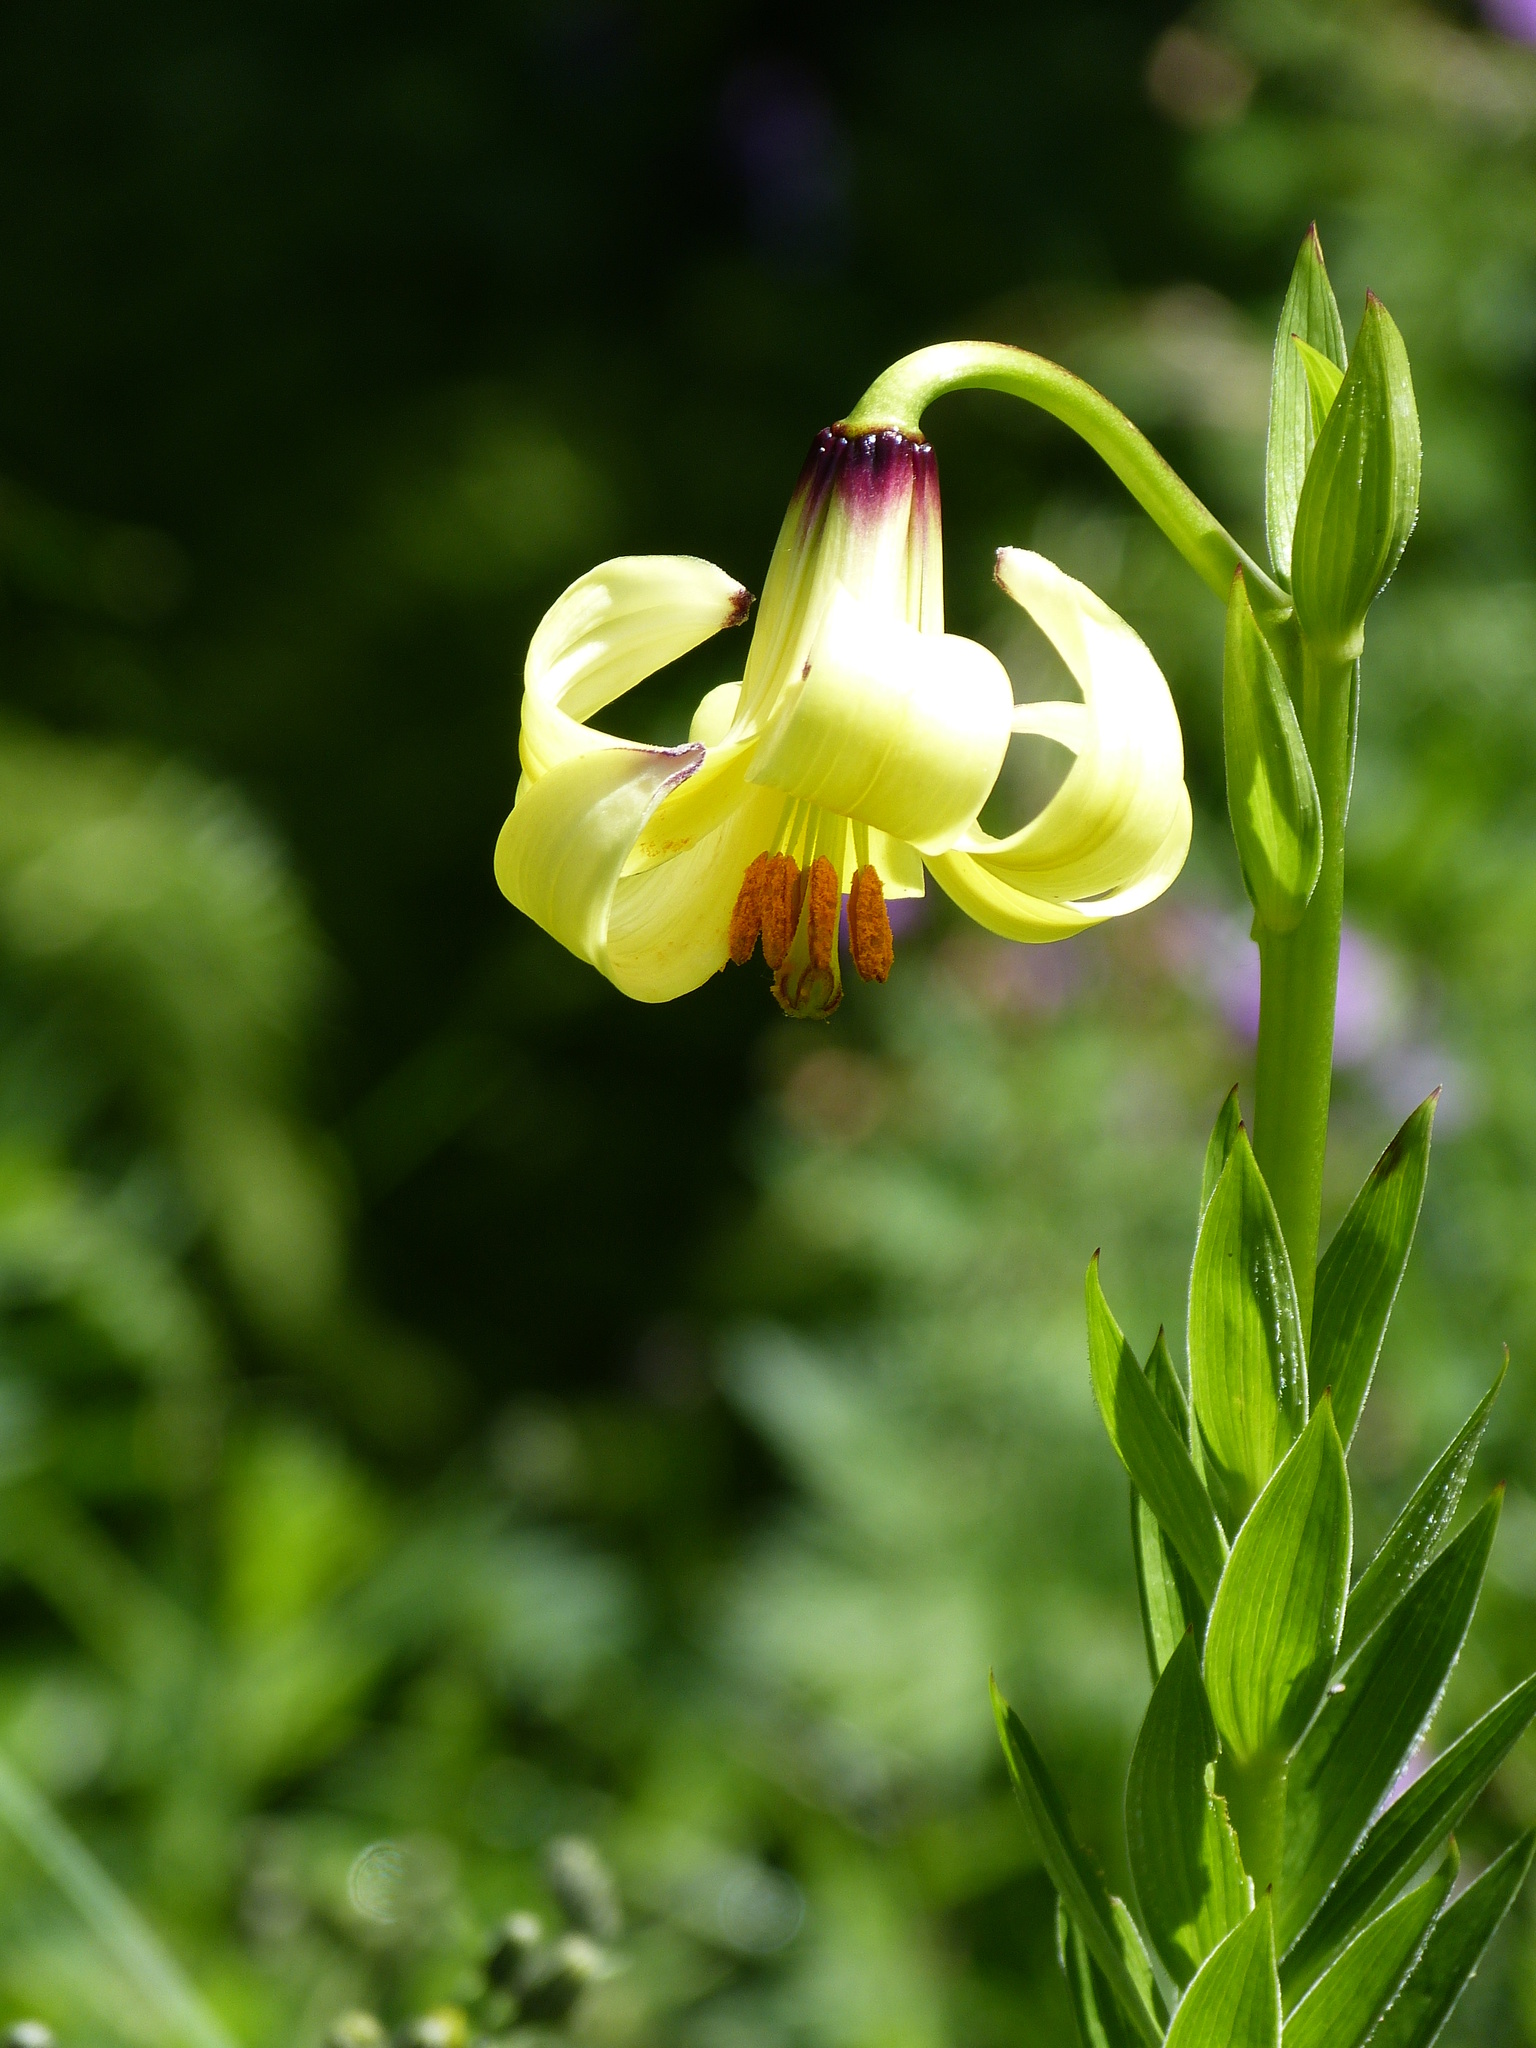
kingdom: Plantae
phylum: Tracheophyta
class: Liliopsida
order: Liliales
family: Liliaceae
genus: Lilium
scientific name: Lilium monadelphum
